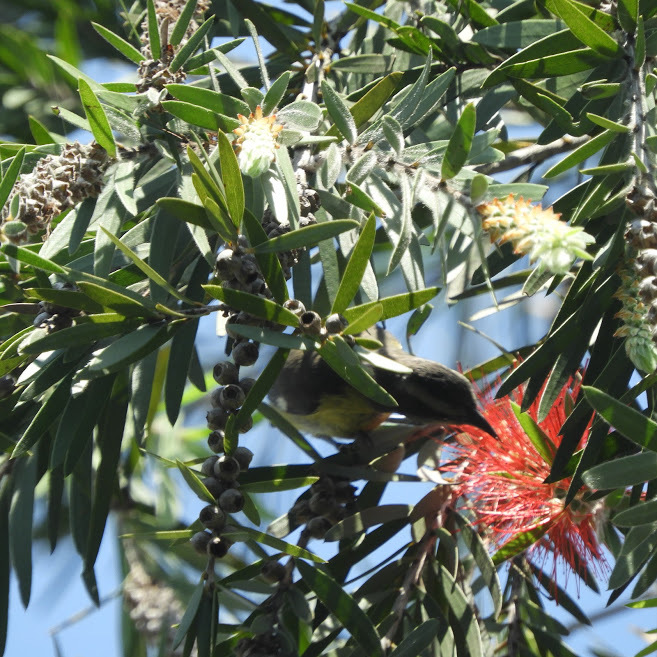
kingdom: Animalia
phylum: Chordata
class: Aves
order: Passeriformes
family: Thraupidae
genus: Coereba
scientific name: Coereba flaveola
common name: Bananaquit
